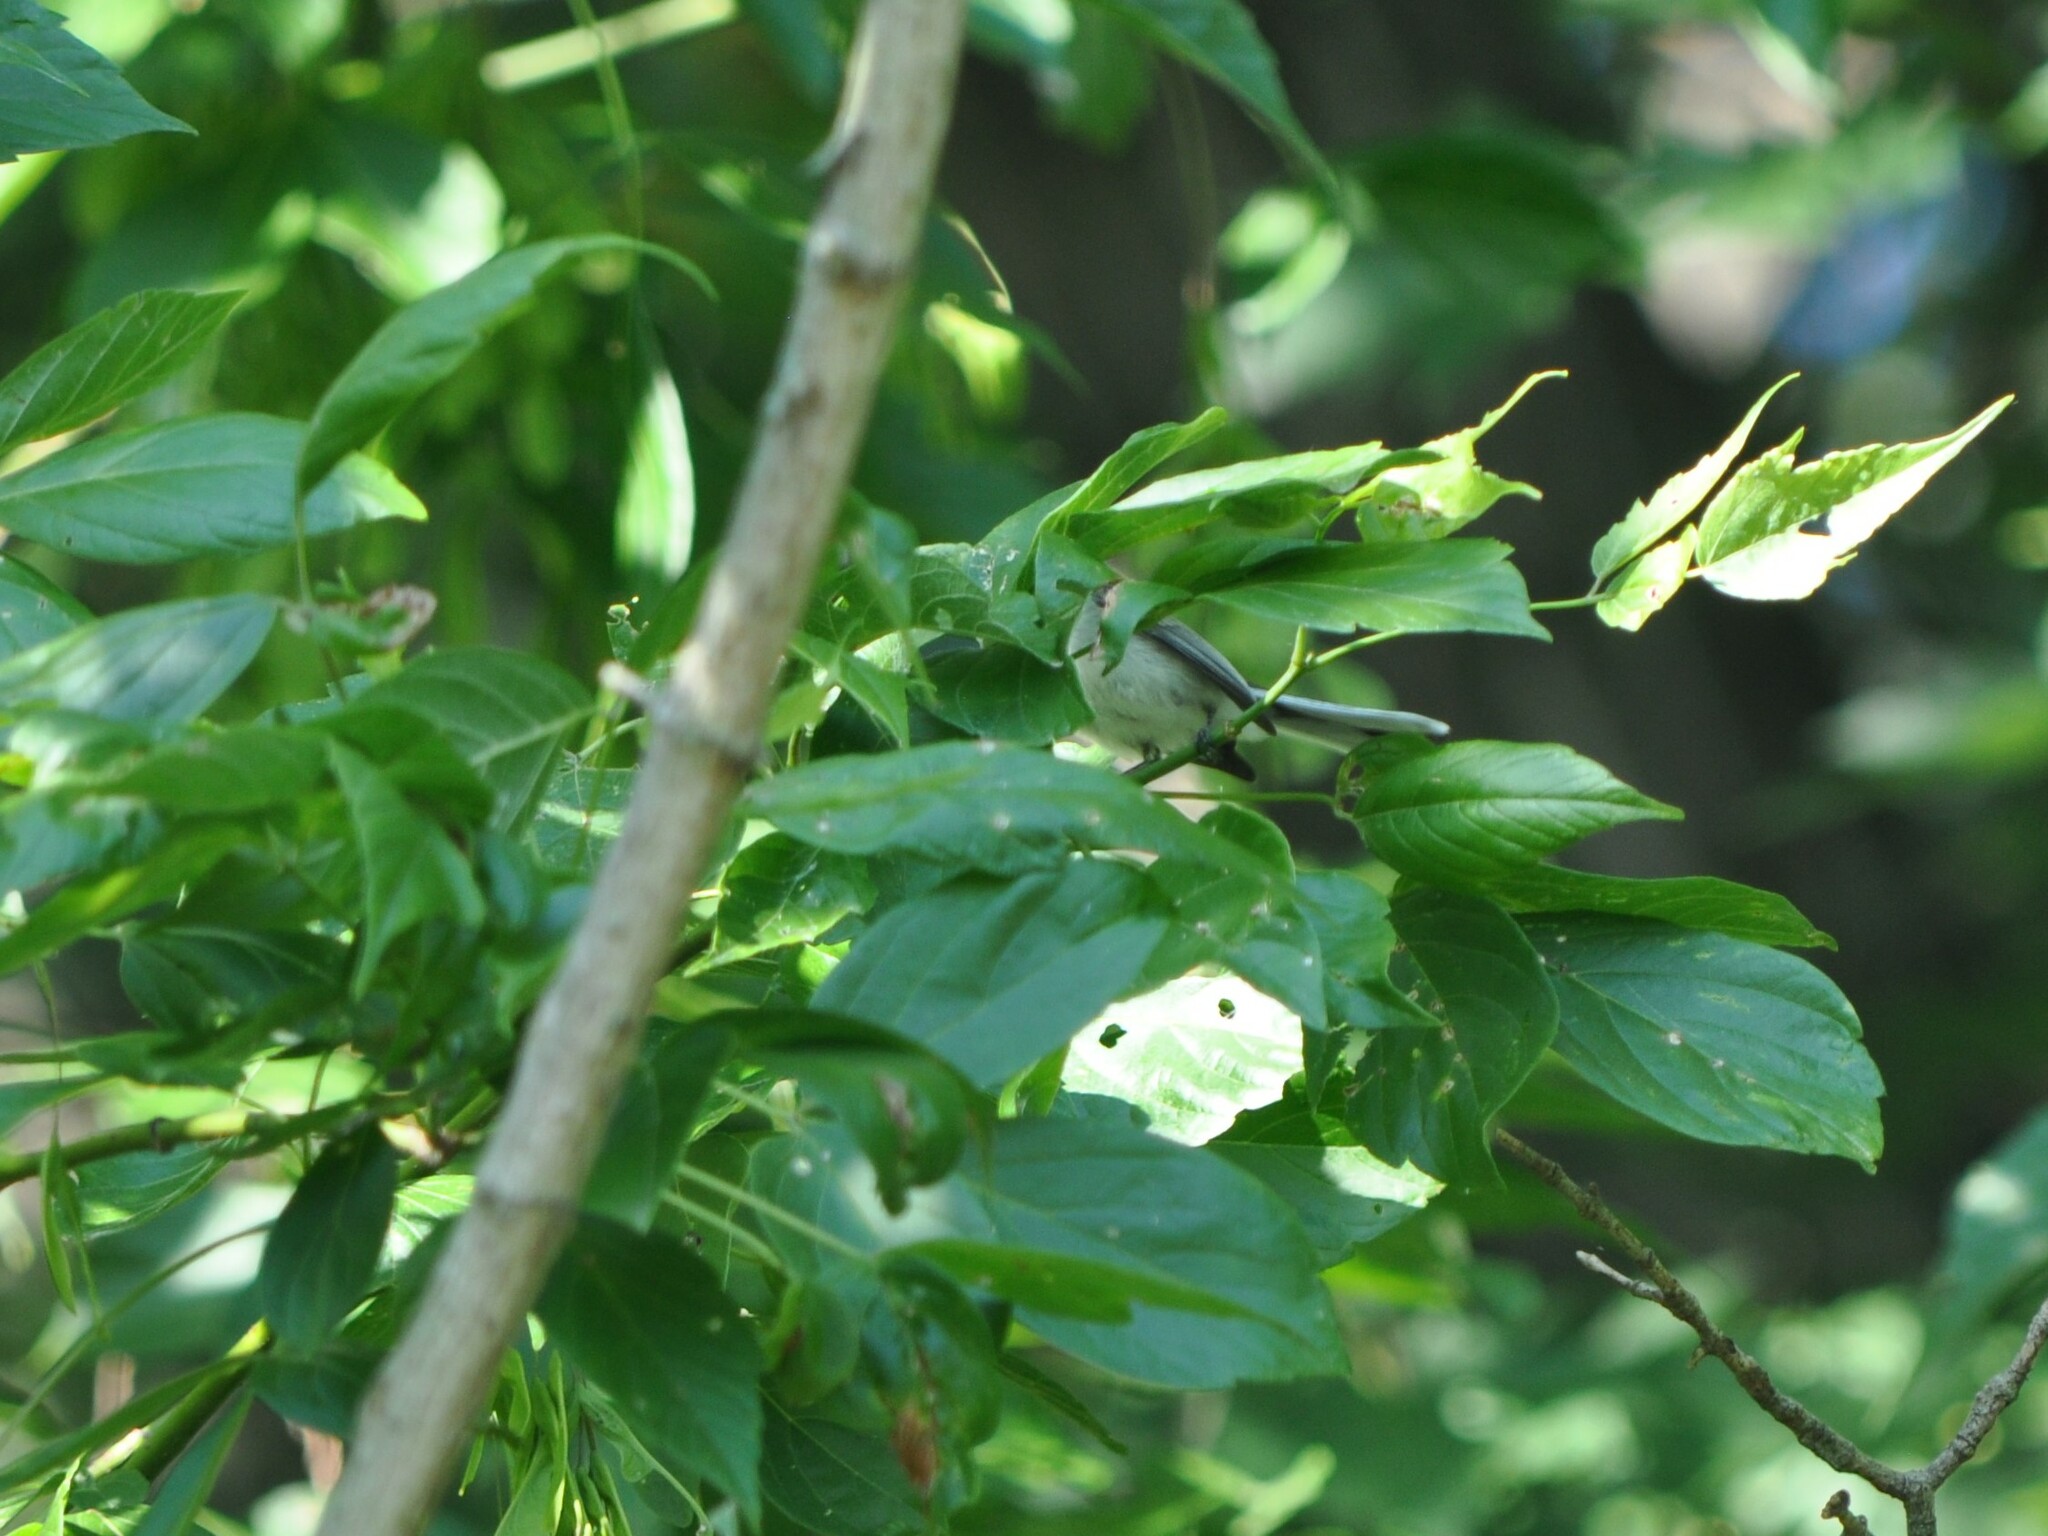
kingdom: Animalia
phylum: Chordata
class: Aves
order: Passeriformes
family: Polioptilidae
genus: Polioptila
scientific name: Polioptila caerulea
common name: Blue-gray gnatcatcher
